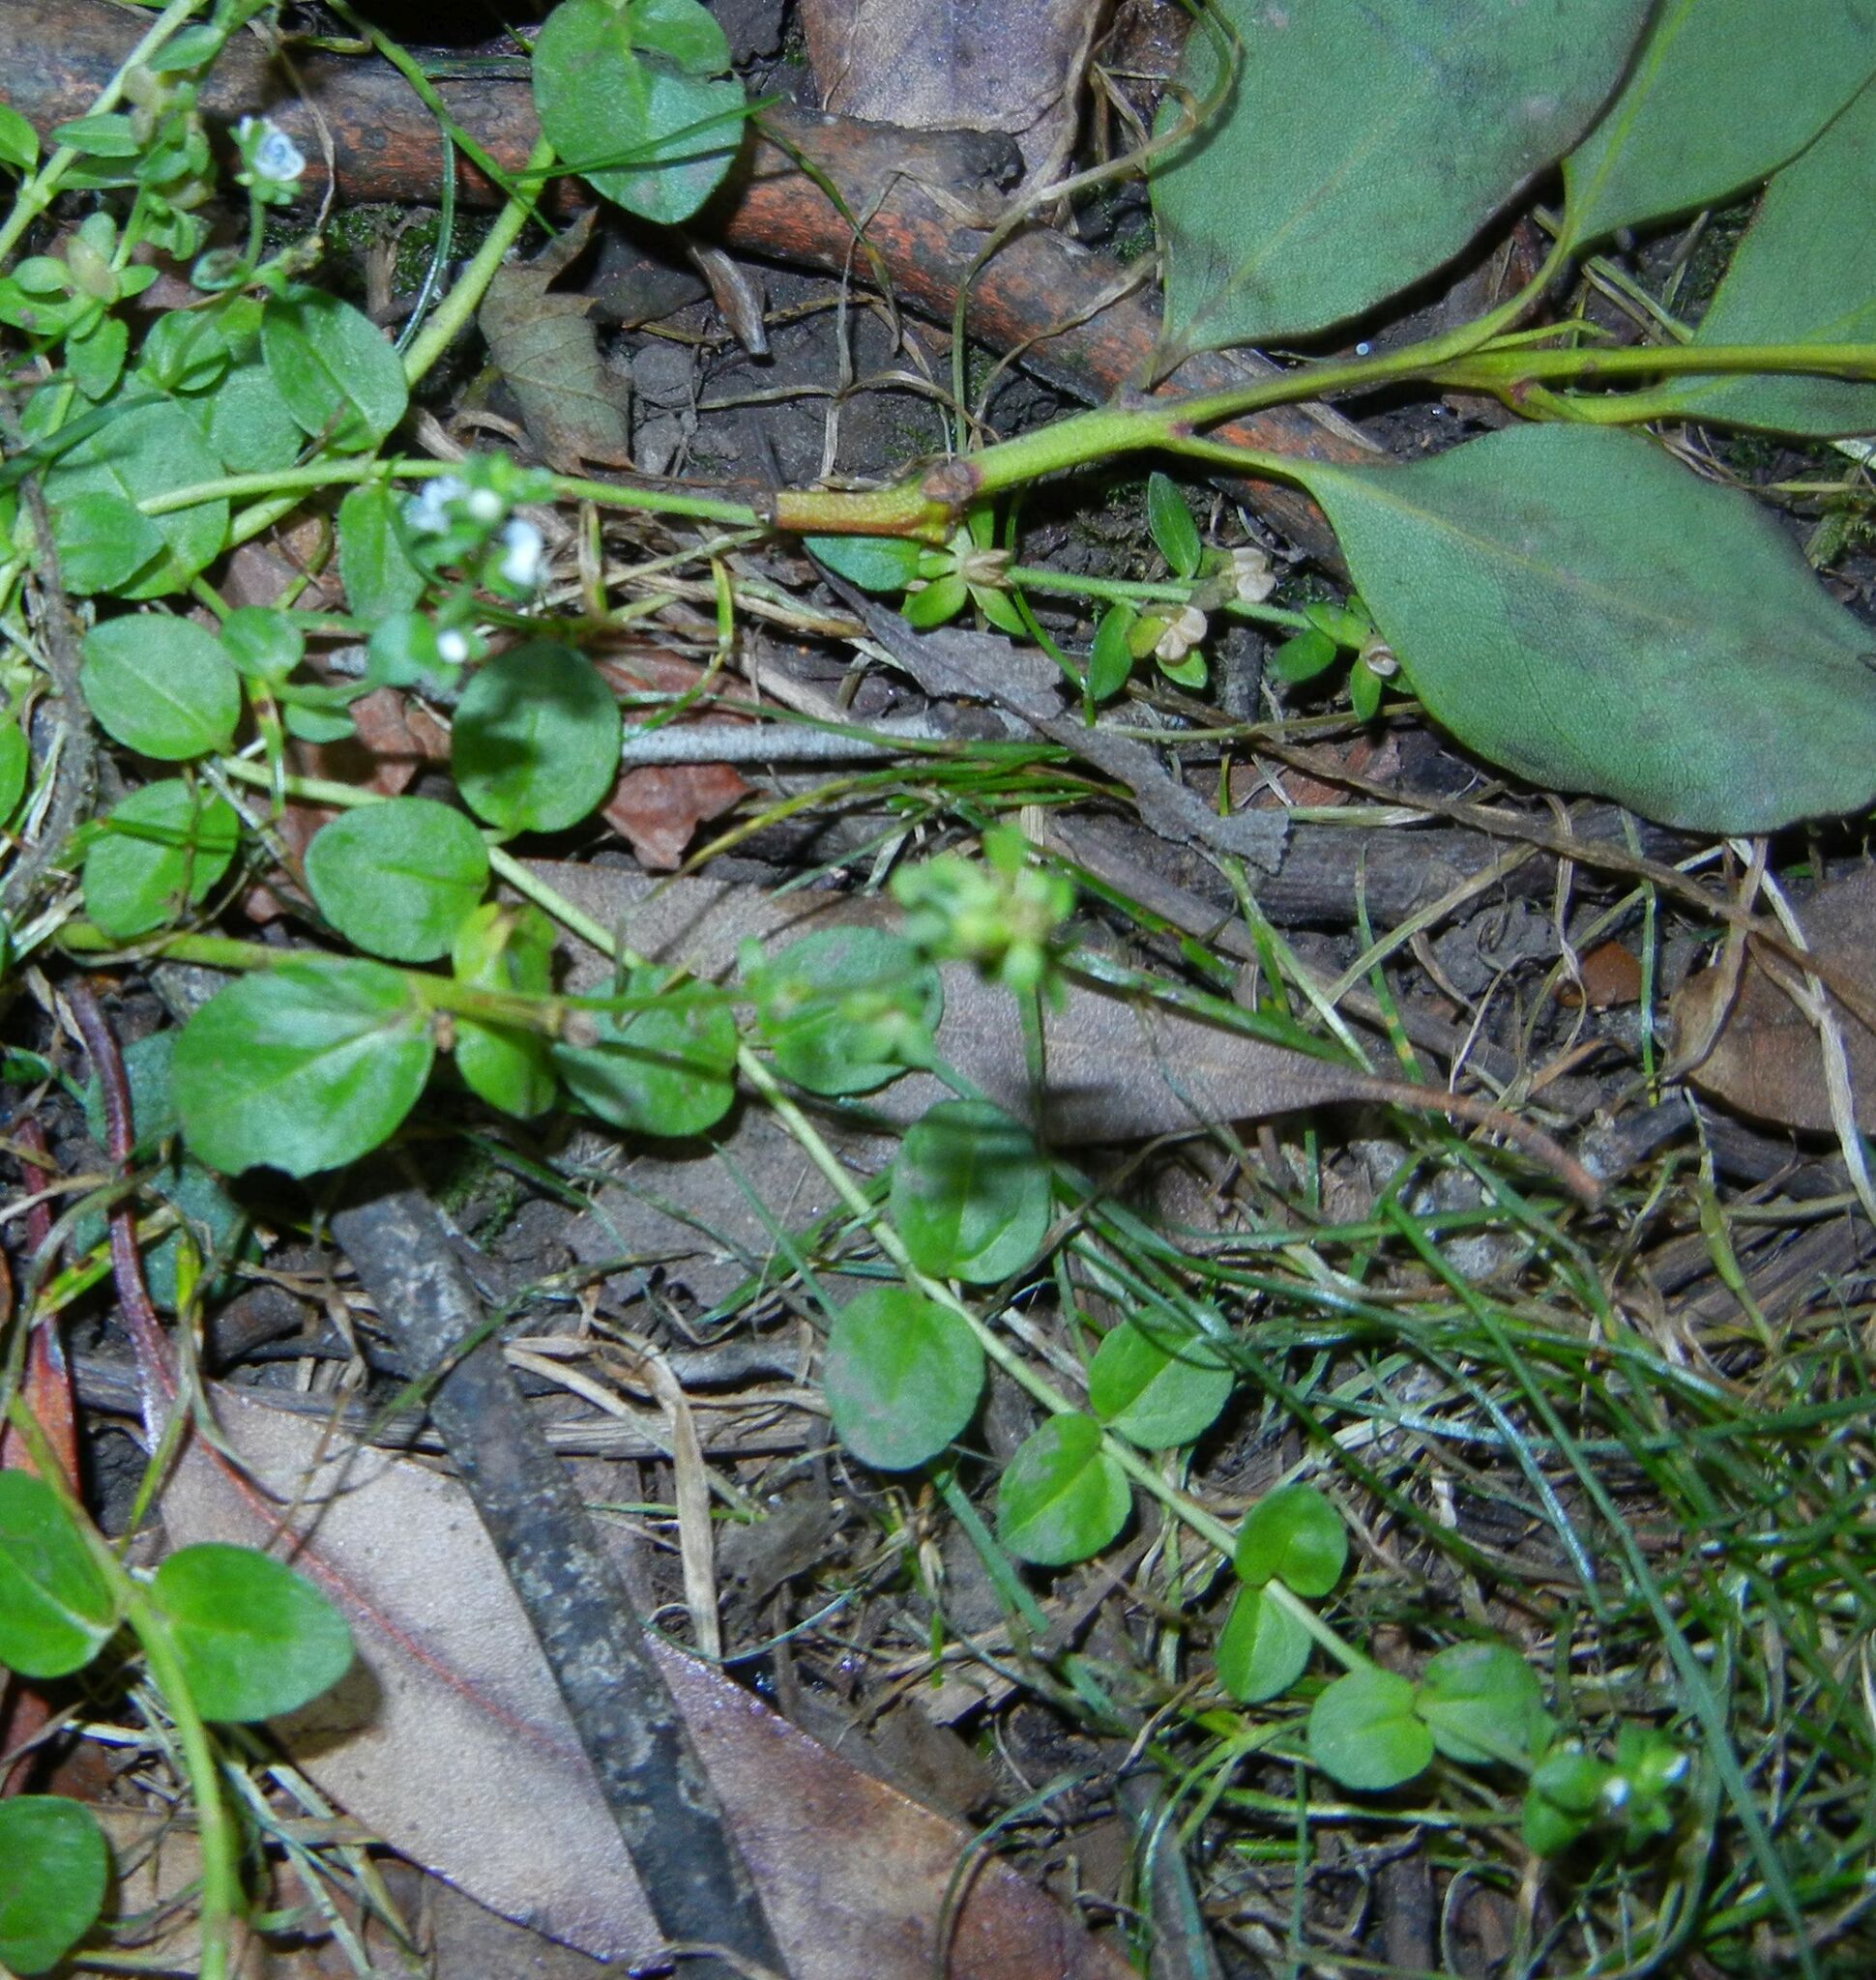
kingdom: Plantae
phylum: Tracheophyta
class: Magnoliopsida
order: Lamiales
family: Plantaginaceae
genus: Veronica
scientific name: Veronica serpyllifolia
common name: Thyme-leaved speedwell
